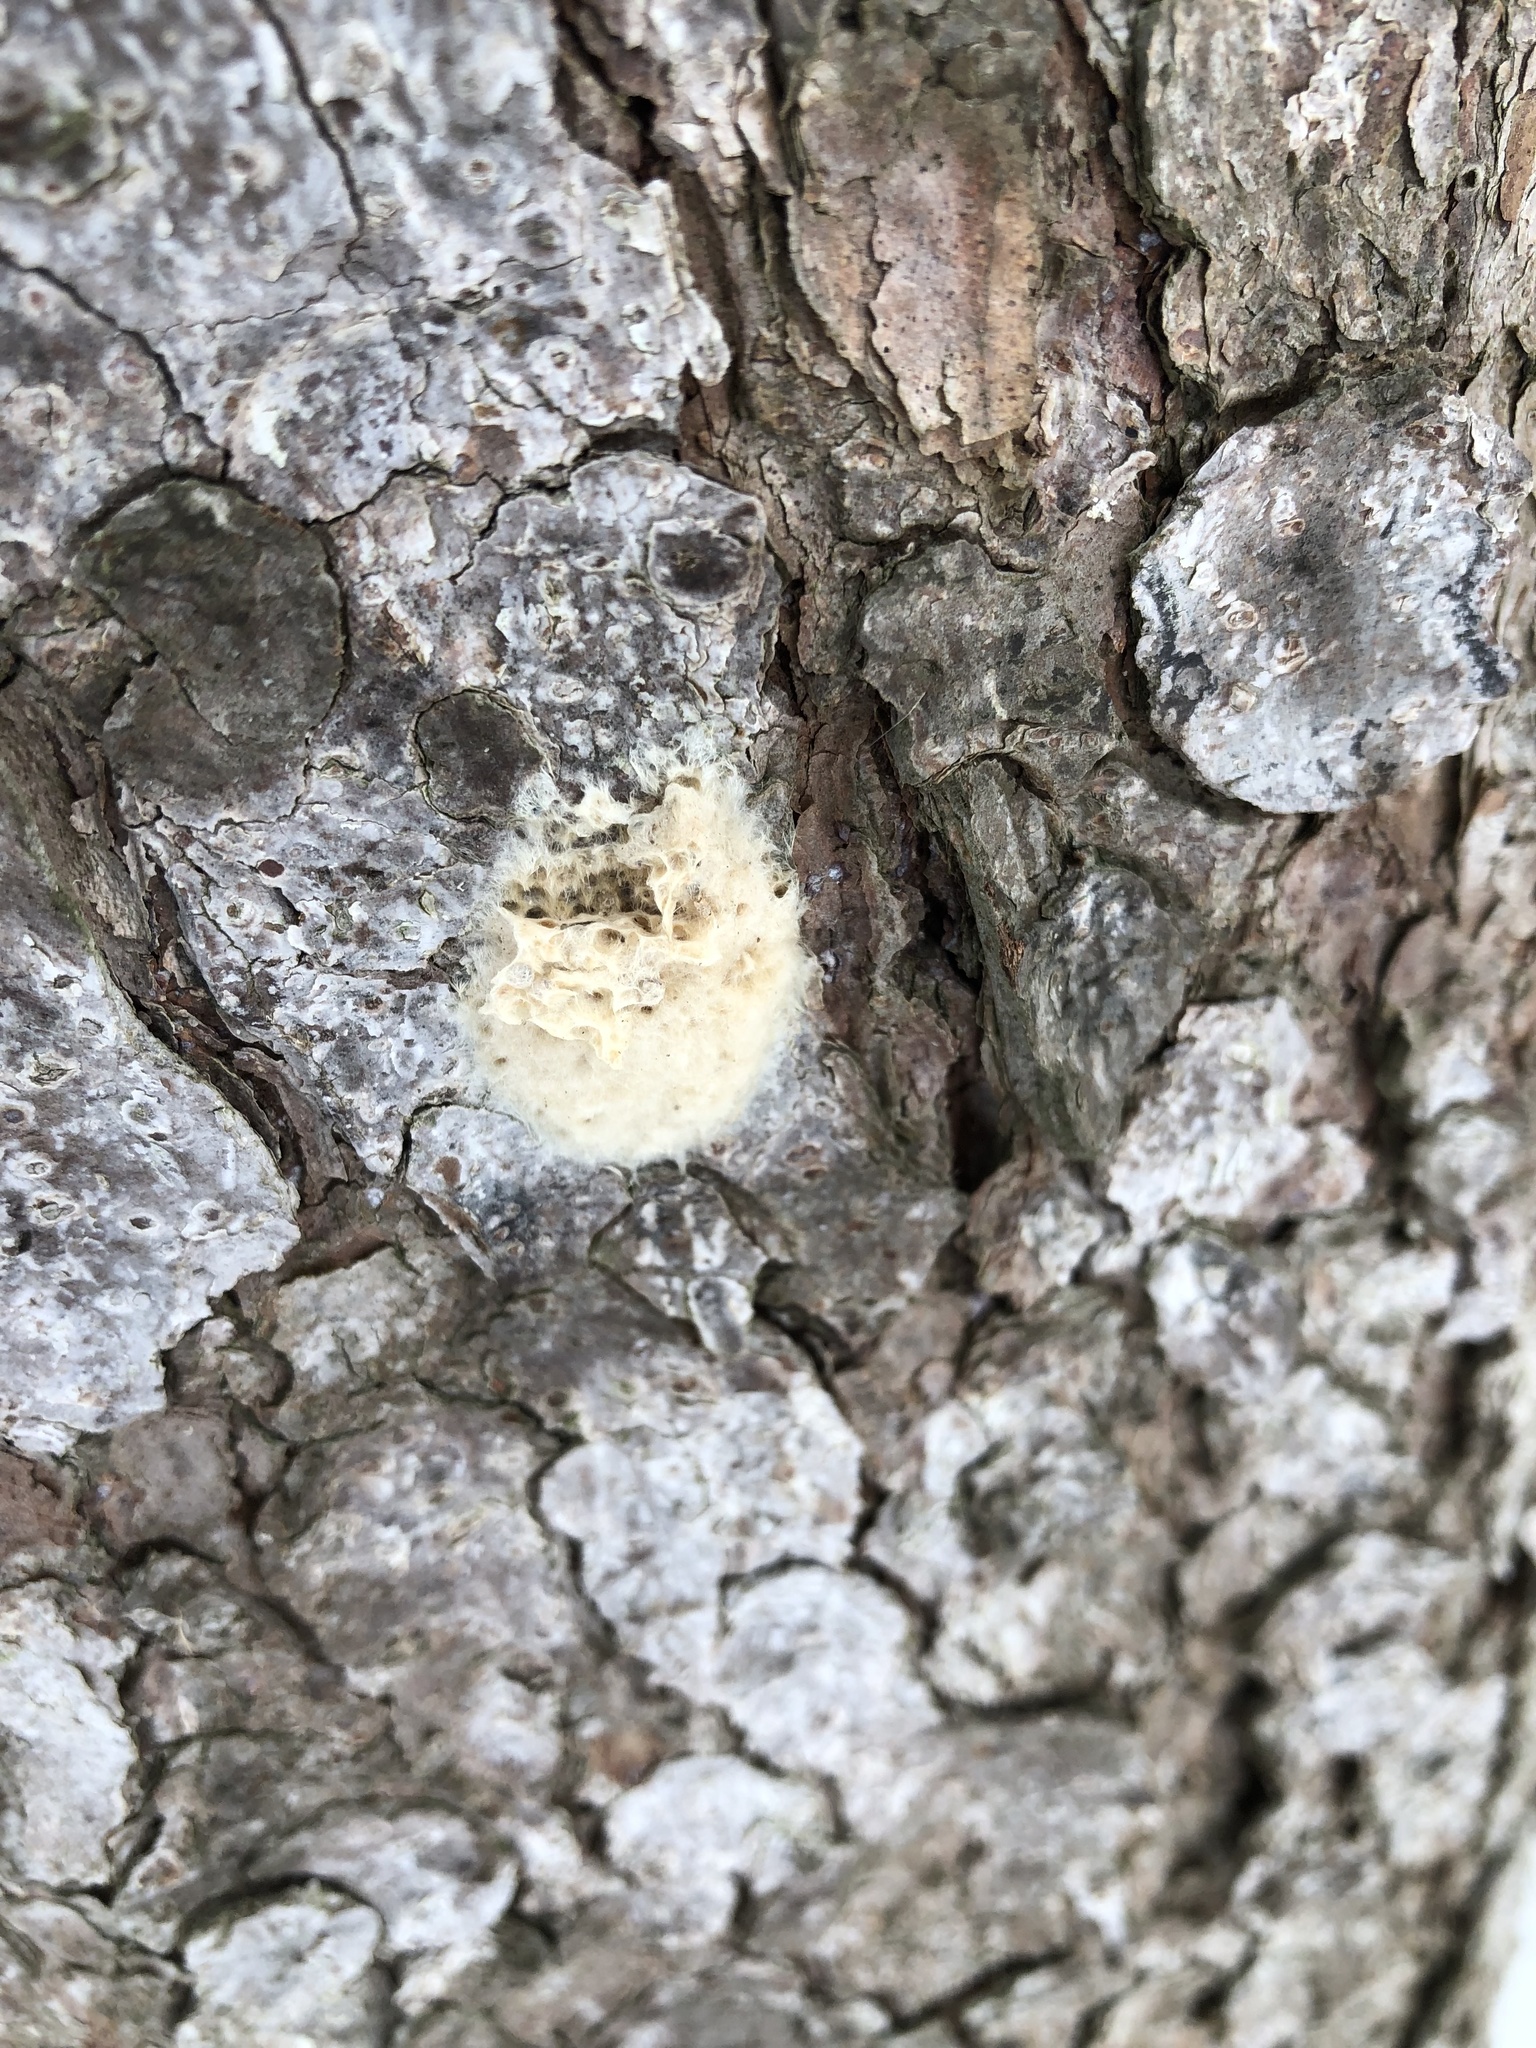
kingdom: Animalia
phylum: Arthropoda
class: Insecta
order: Lepidoptera
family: Erebidae
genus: Lymantria
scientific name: Lymantria dispar
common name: Gypsy moth
